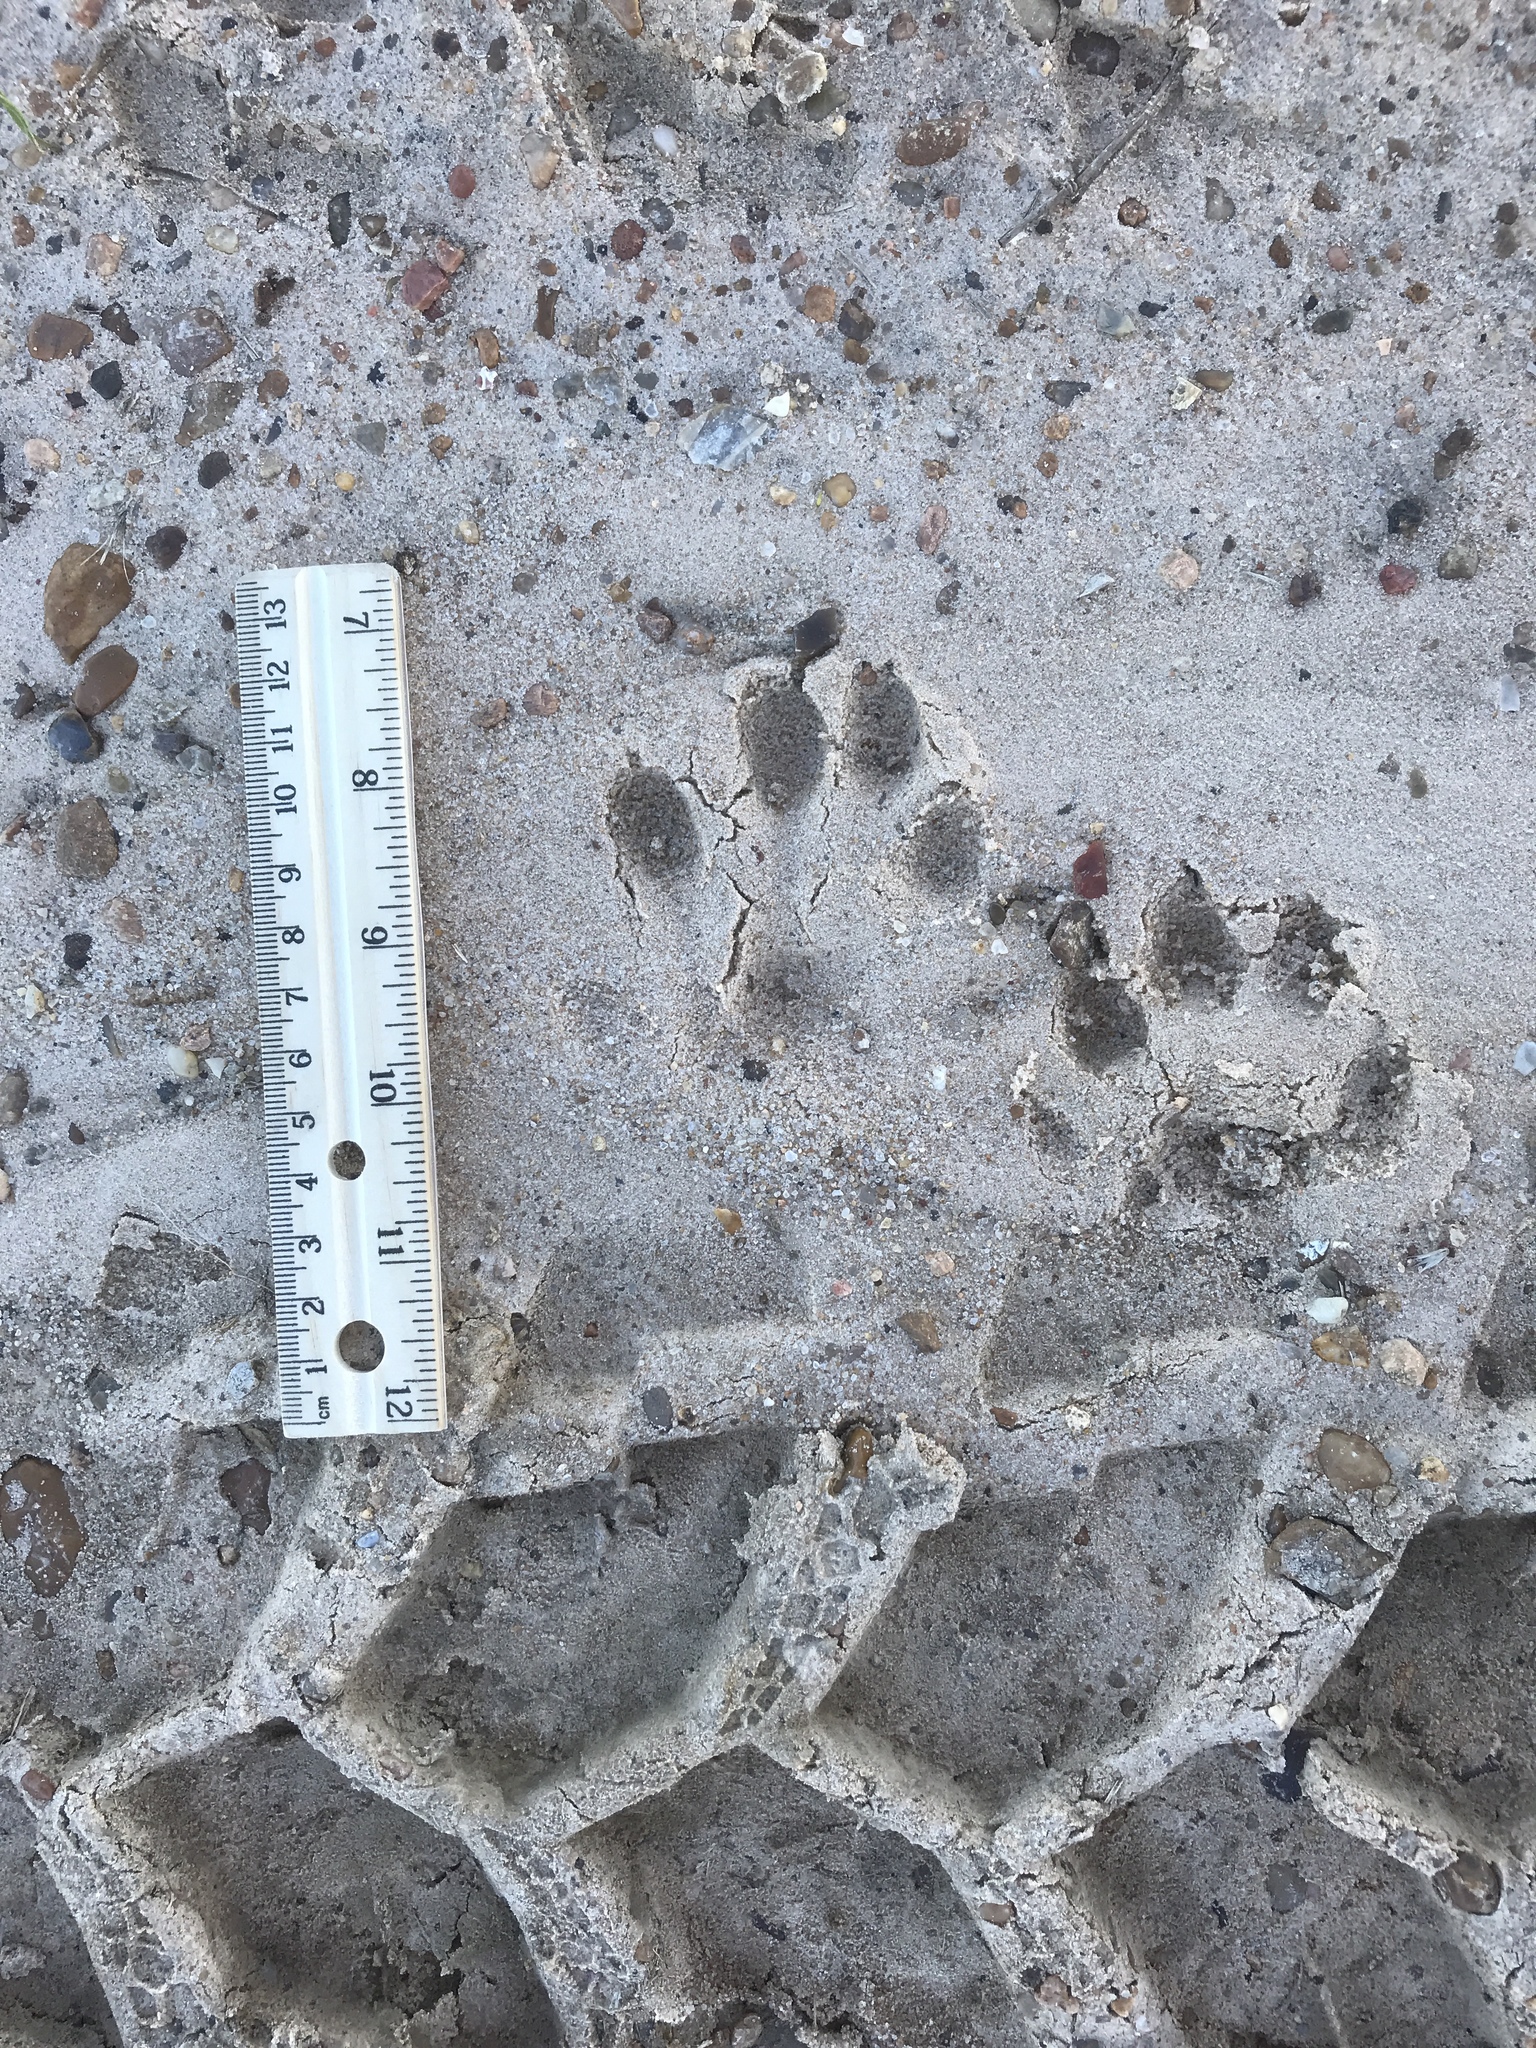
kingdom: Animalia
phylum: Chordata
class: Mammalia
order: Carnivora
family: Mustelidae
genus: Lontra
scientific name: Lontra canadensis
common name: North american river otter
